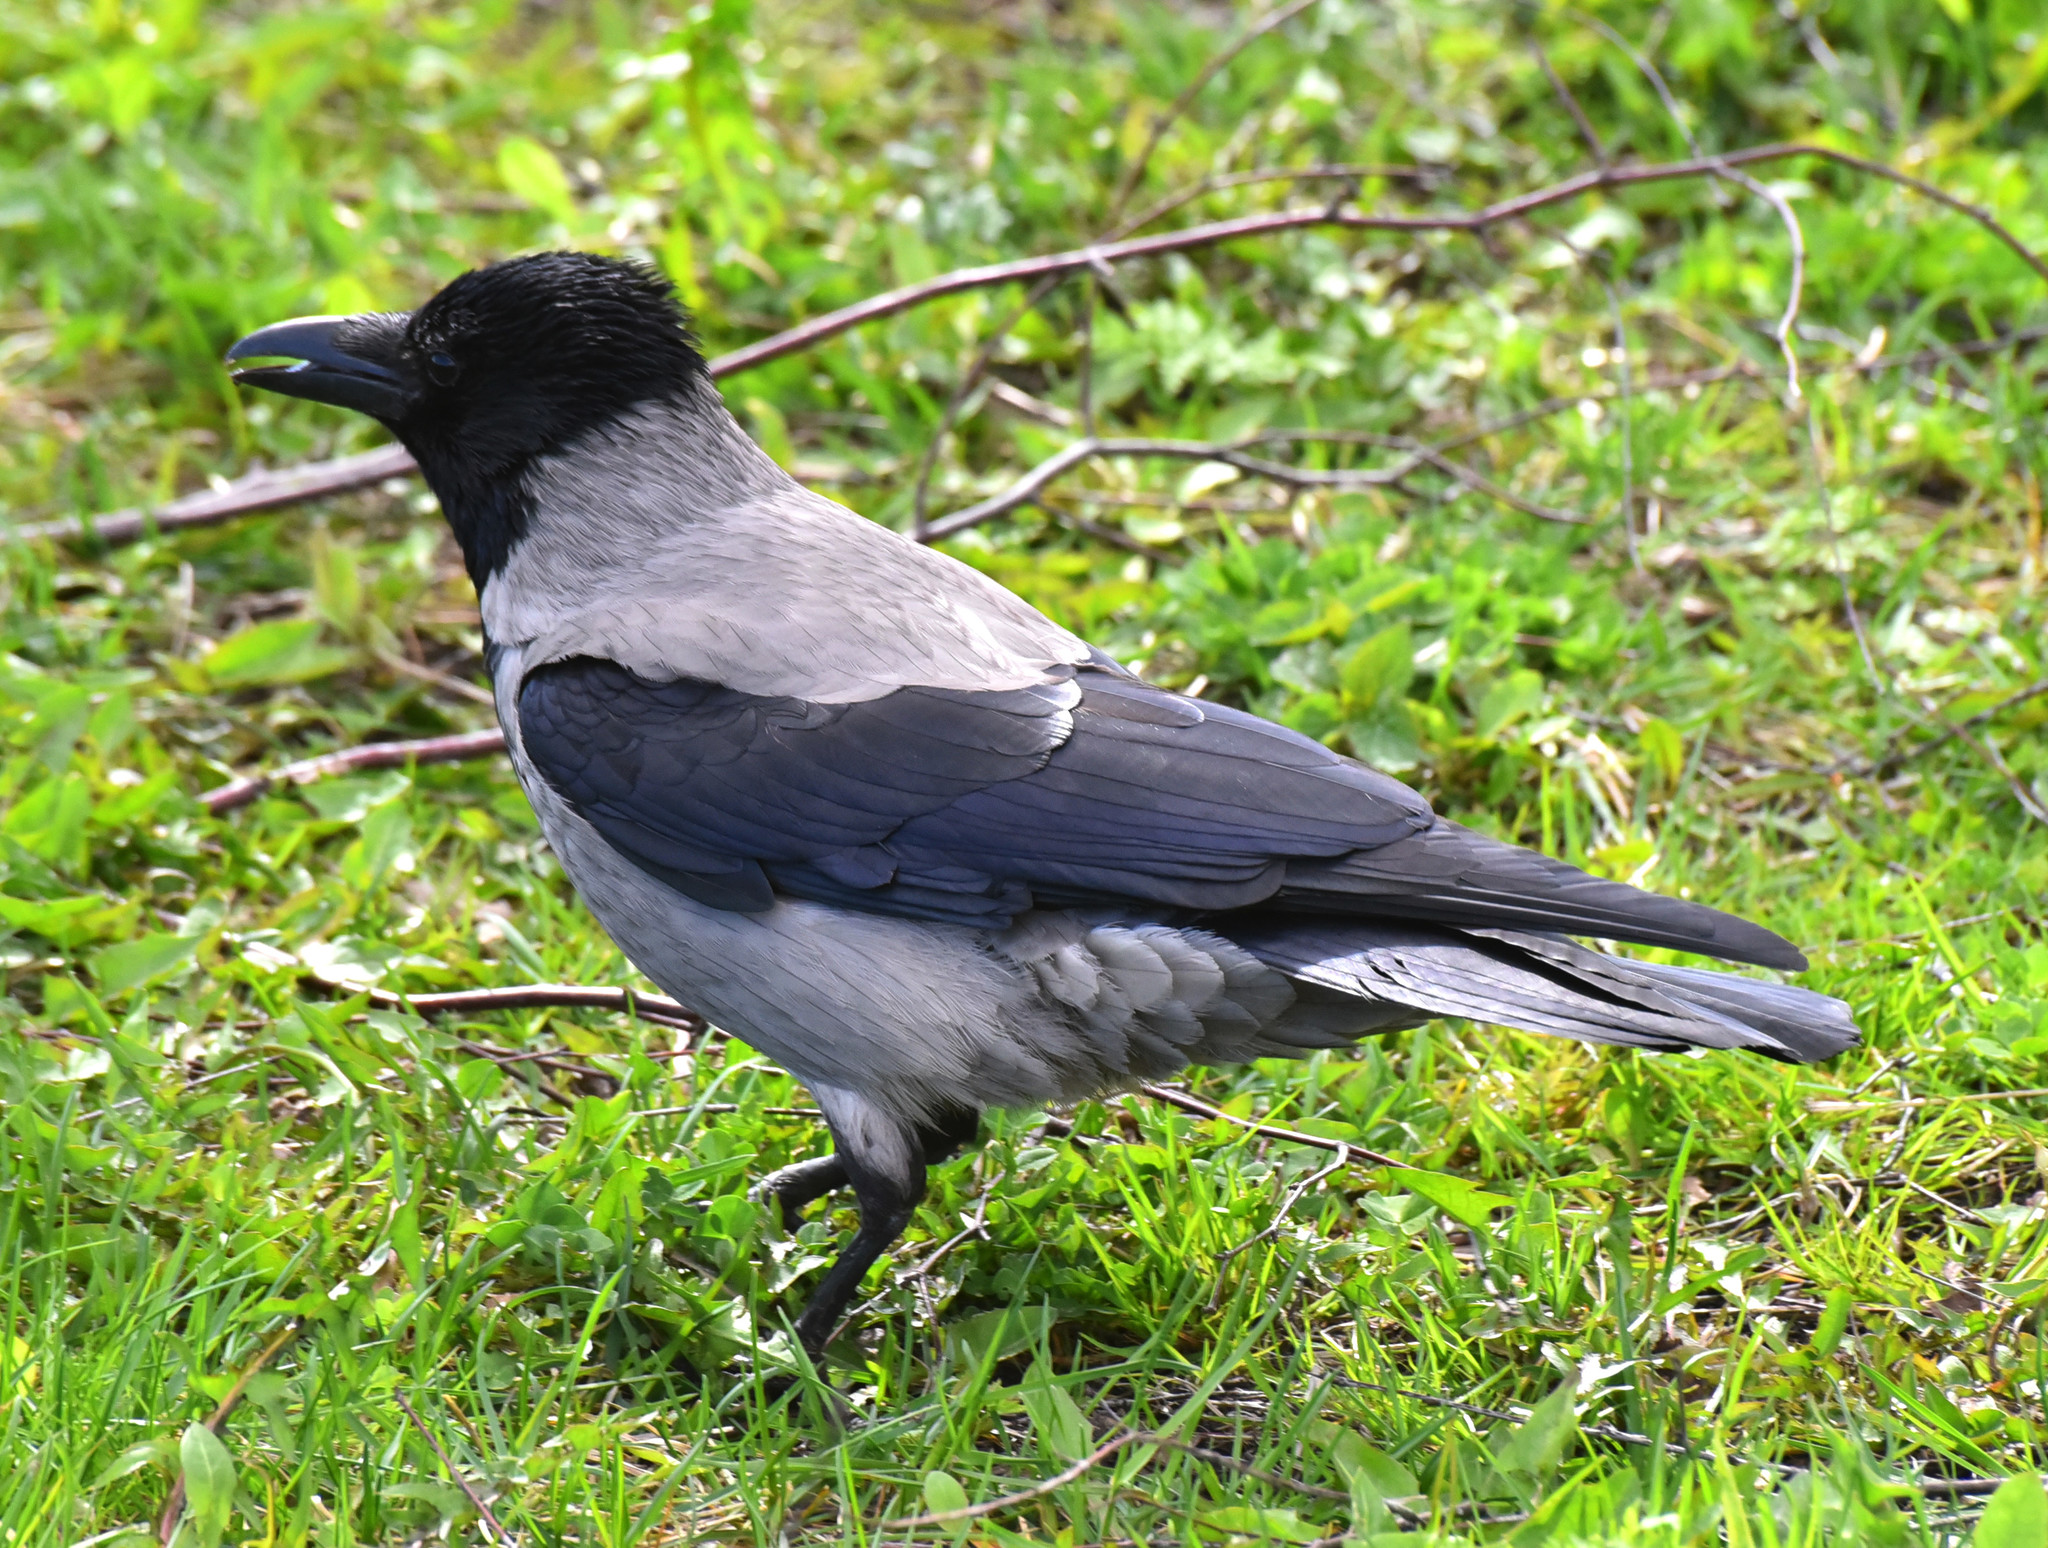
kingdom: Animalia
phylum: Chordata
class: Aves
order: Passeriformes
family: Corvidae
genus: Corvus
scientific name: Corvus cornix
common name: Hooded crow
